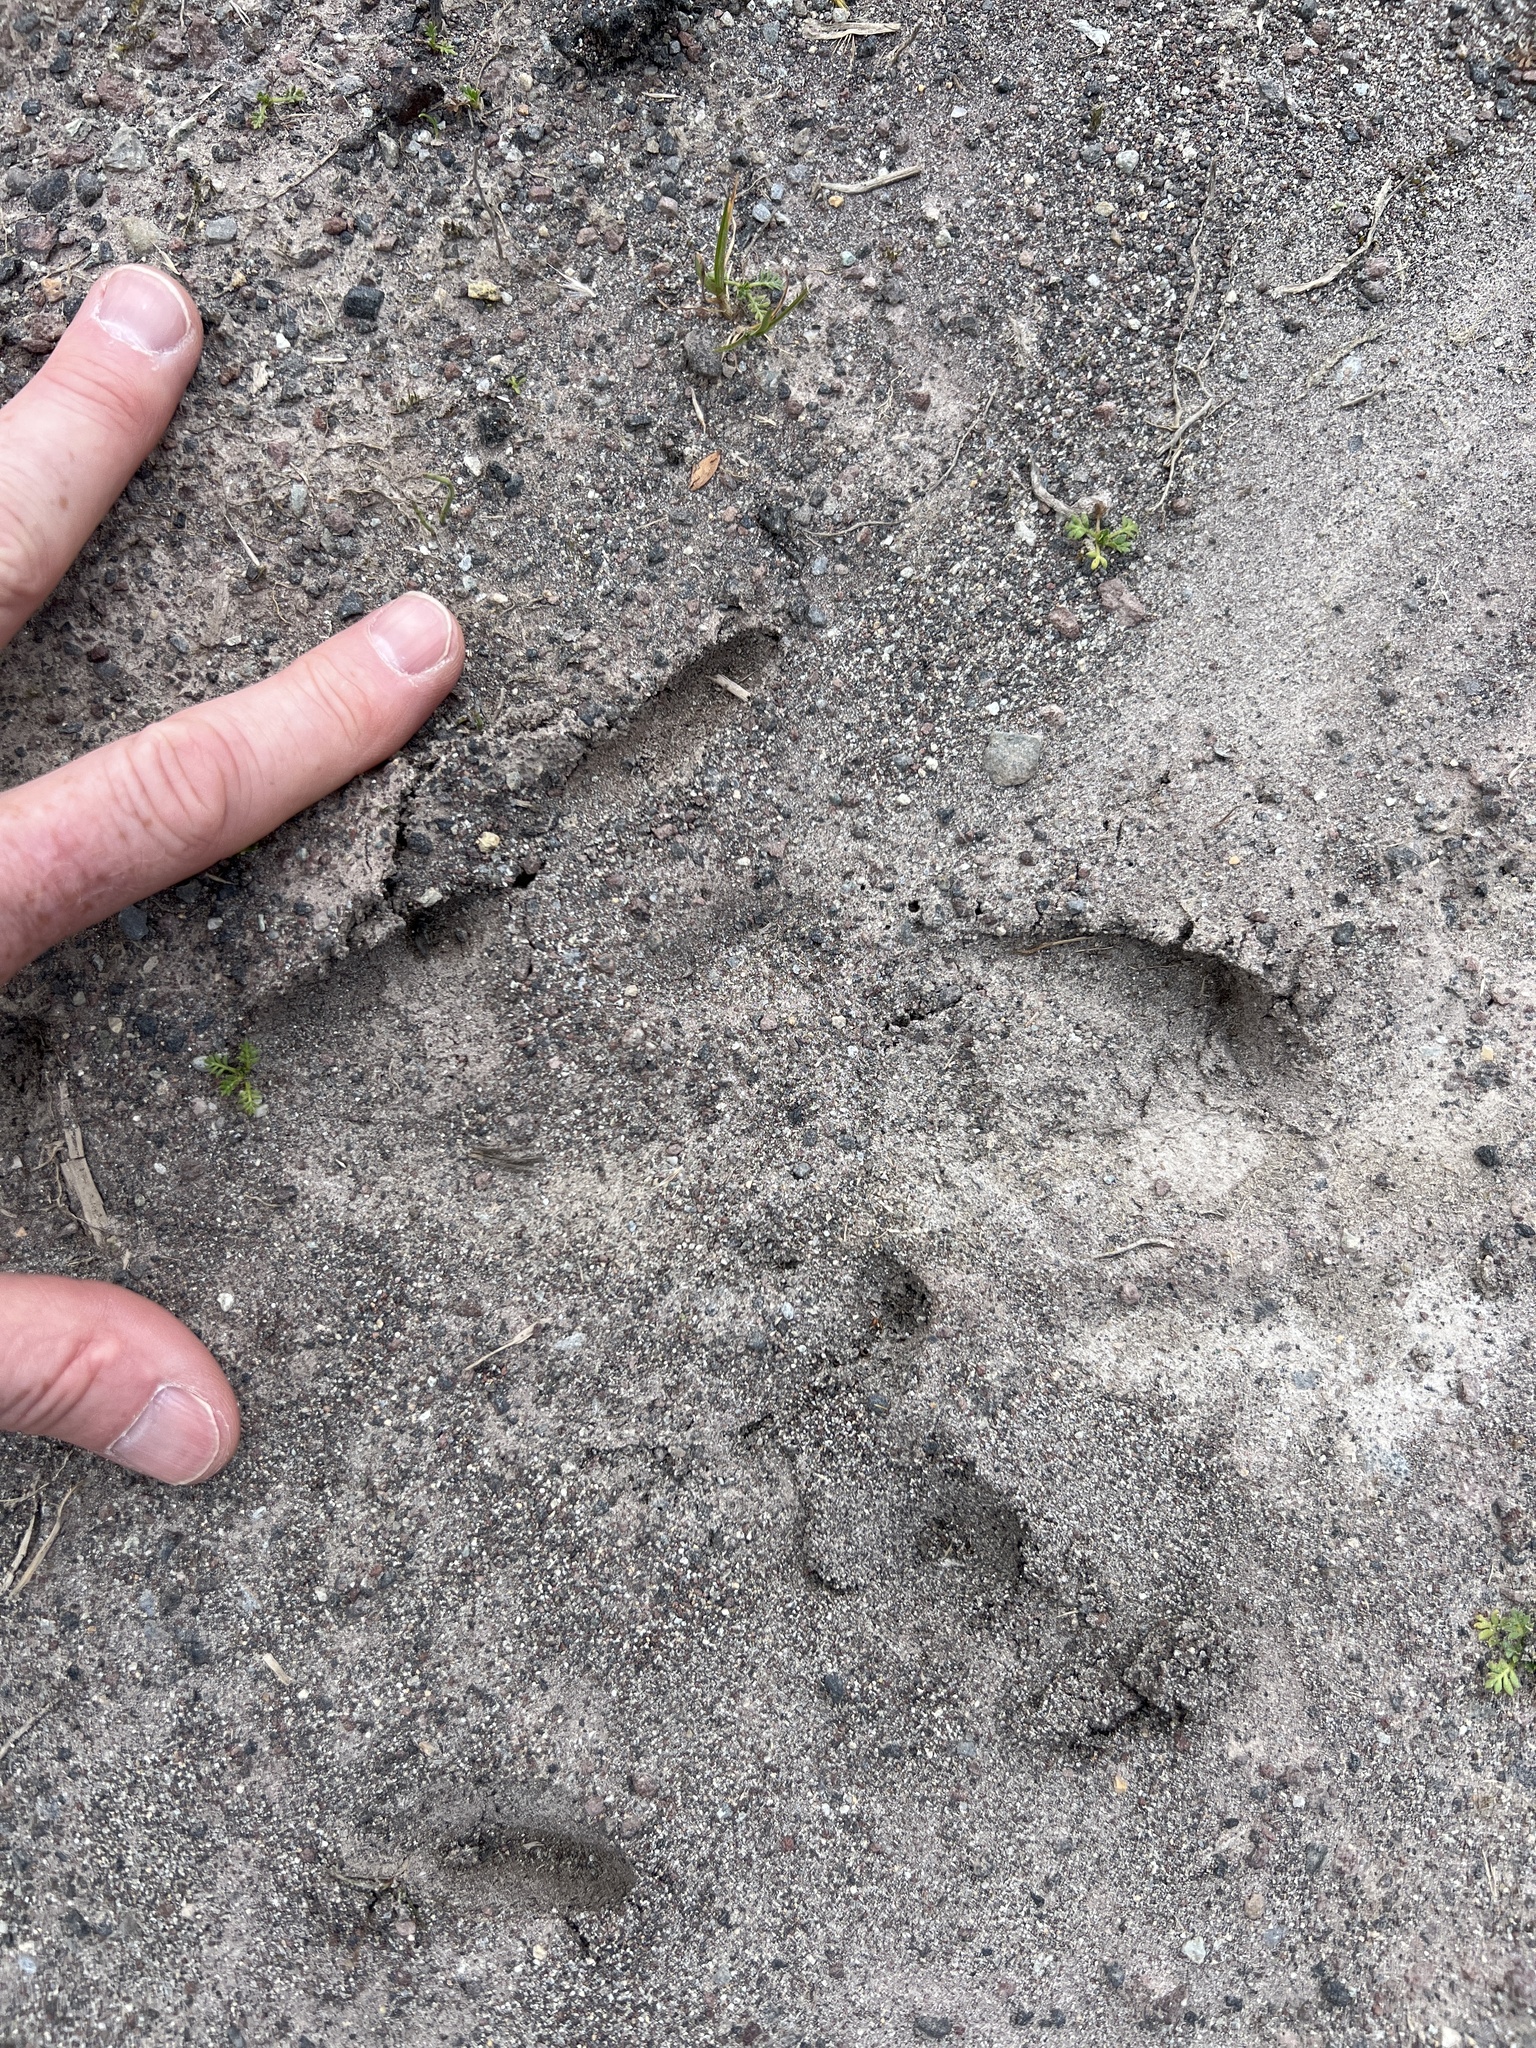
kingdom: Animalia
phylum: Chordata
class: Mammalia
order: Perissodactyla
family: Tapiridae
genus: Tapirus
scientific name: Tapirus pinchaque
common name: Mountain tapir
